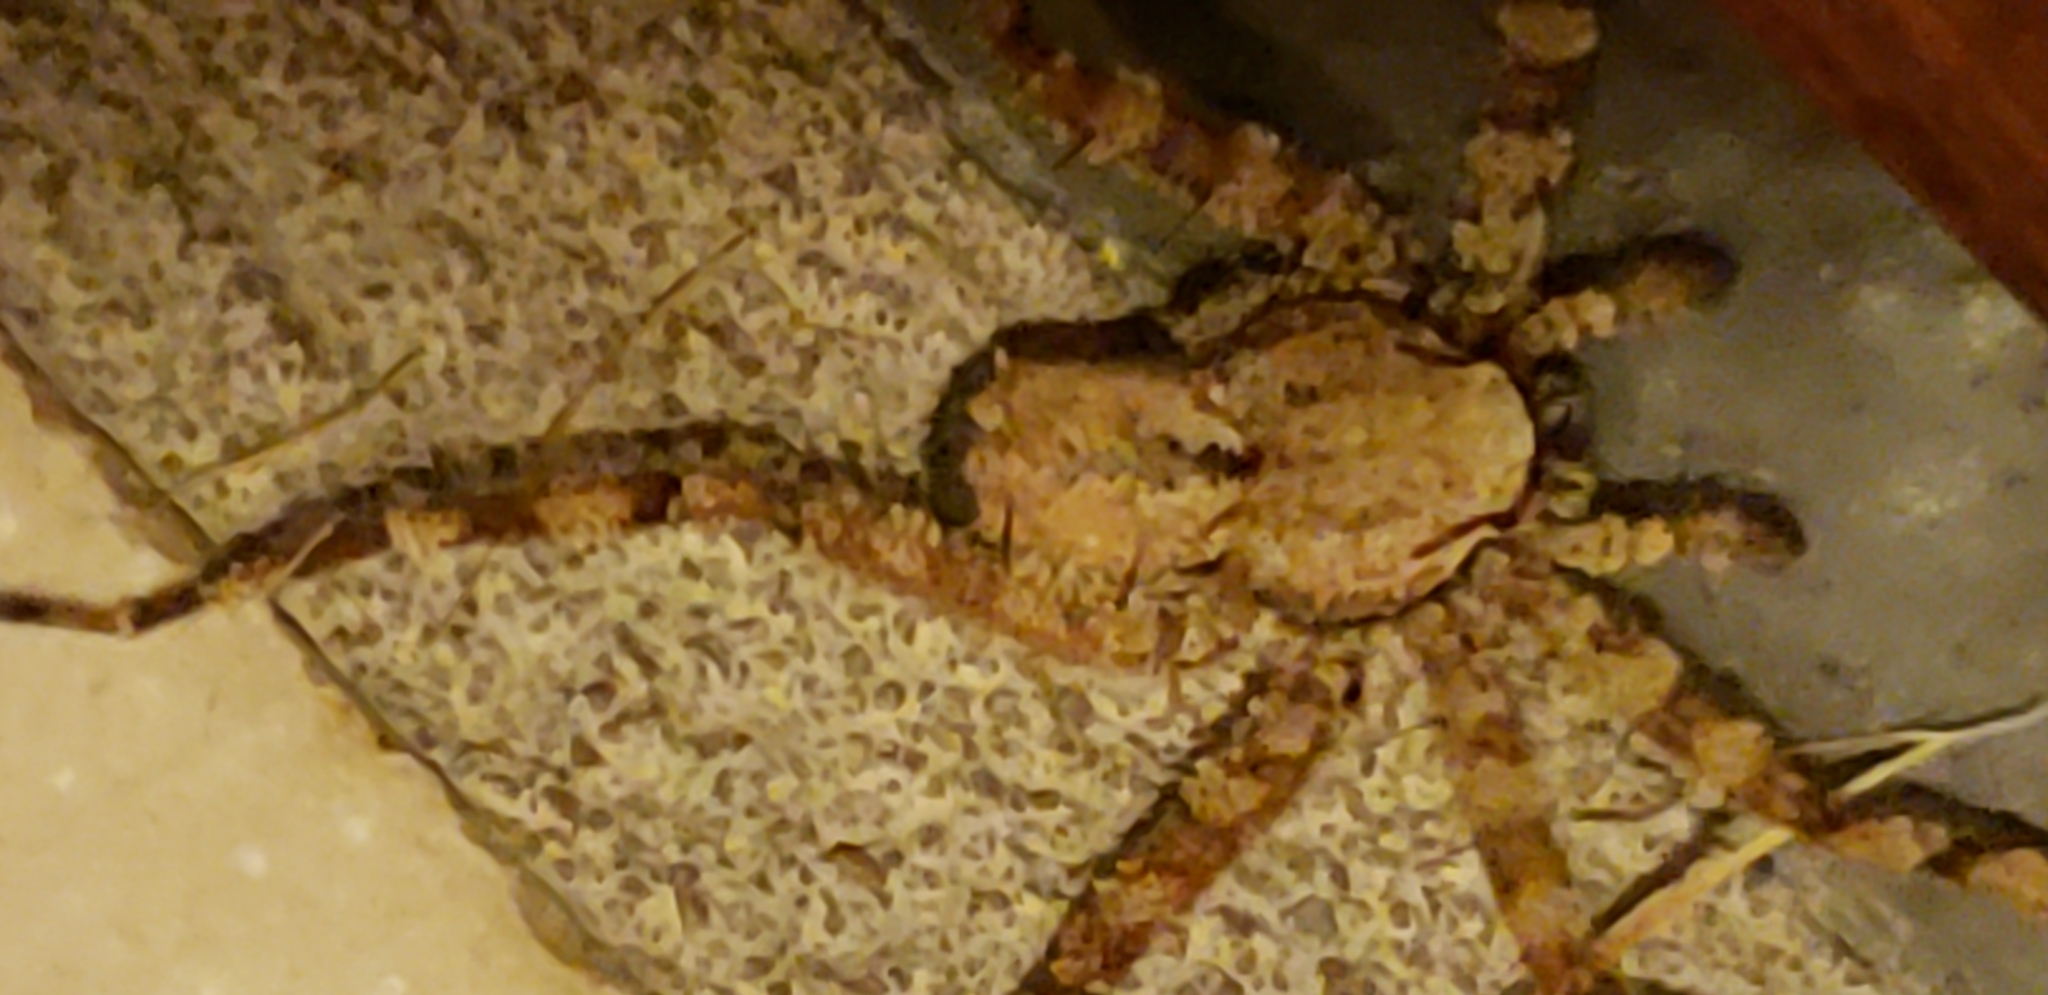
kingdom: Animalia
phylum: Arthropoda
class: Arachnida
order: Araneae
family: Selenopidae
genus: Selenops
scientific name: Selenops lindborgi
